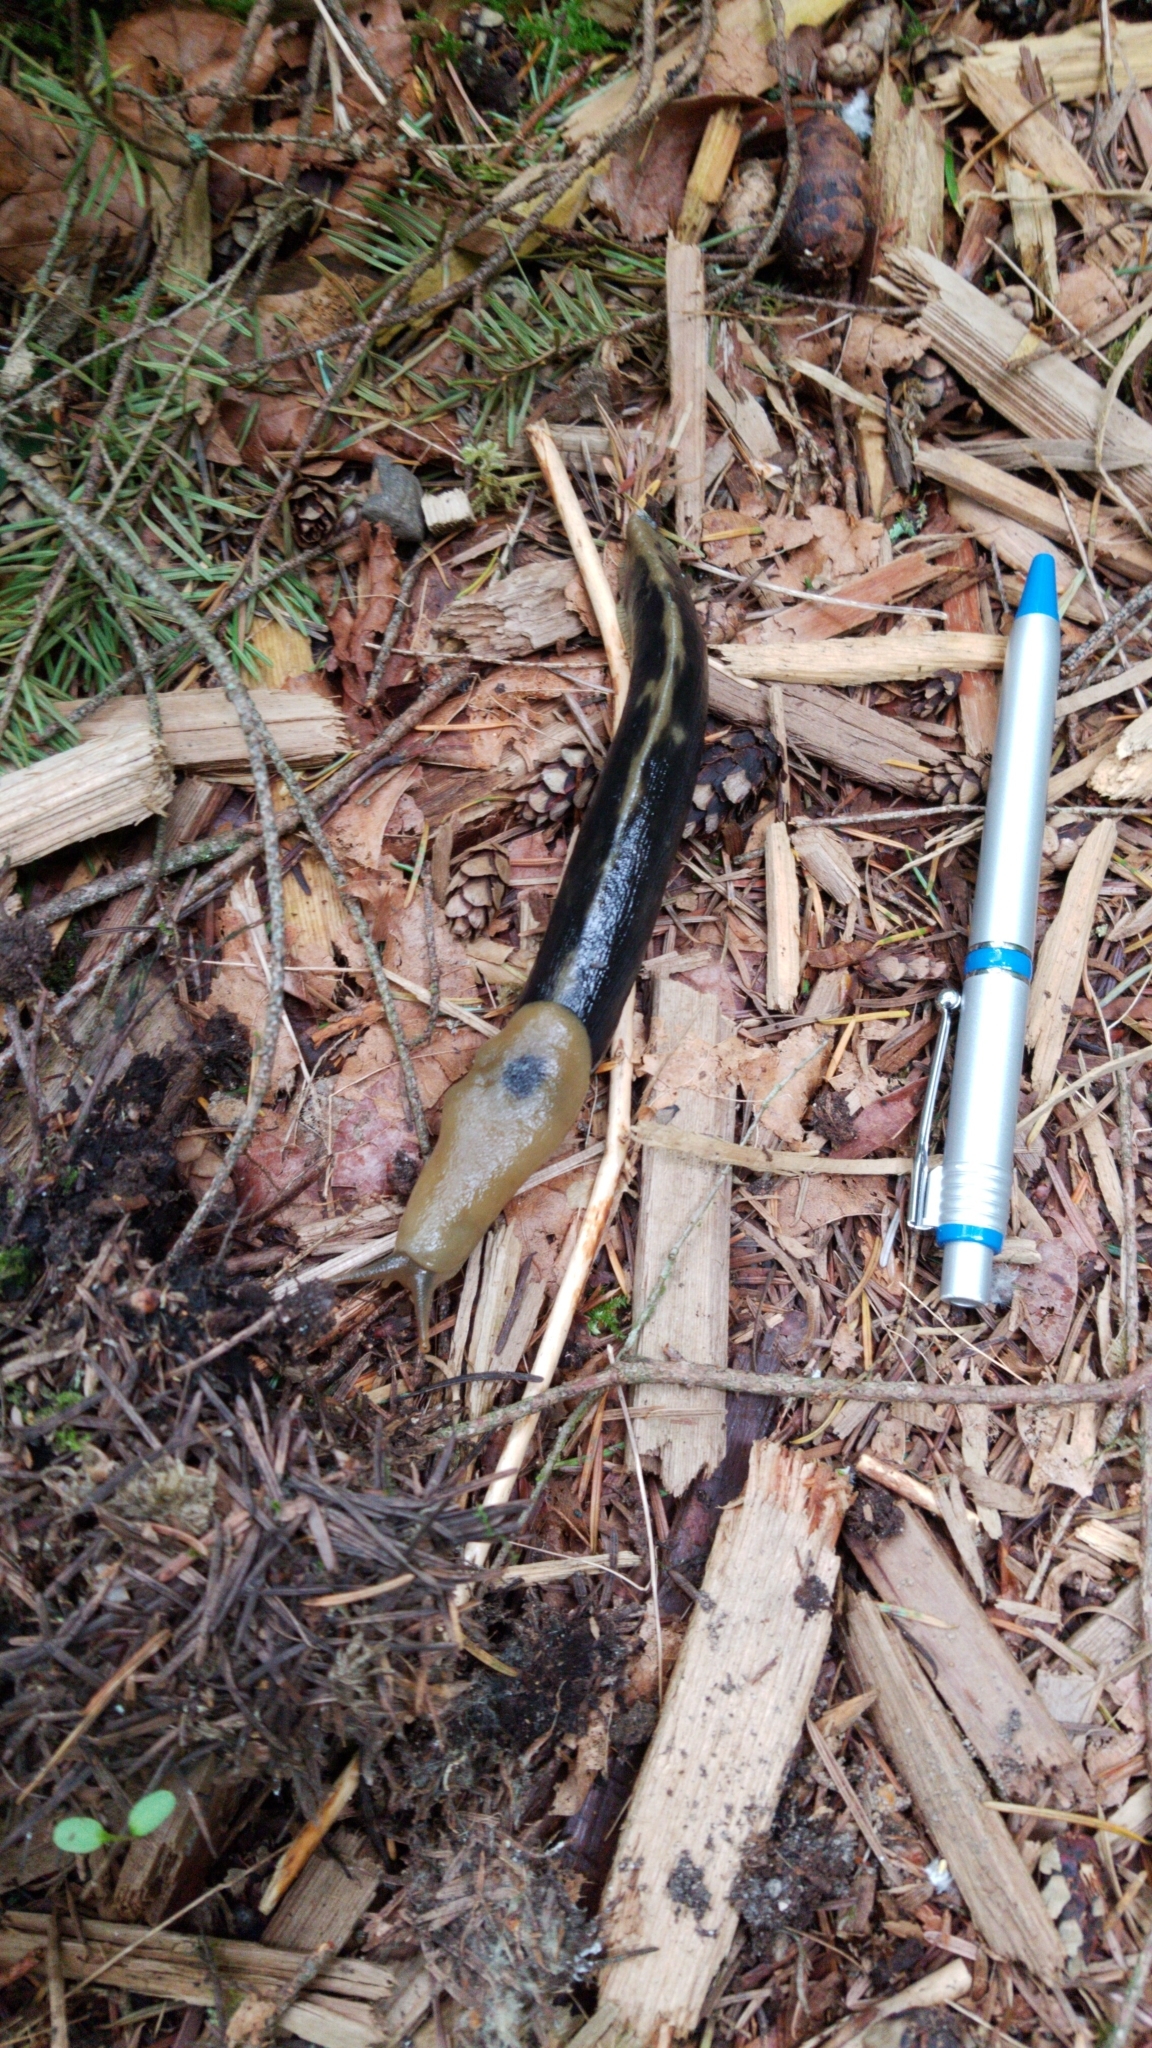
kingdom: Animalia
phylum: Mollusca
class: Gastropoda
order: Stylommatophora
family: Ariolimacidae
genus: Ariolimax
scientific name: Ariolimax columbianus
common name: Pacific banana slug
